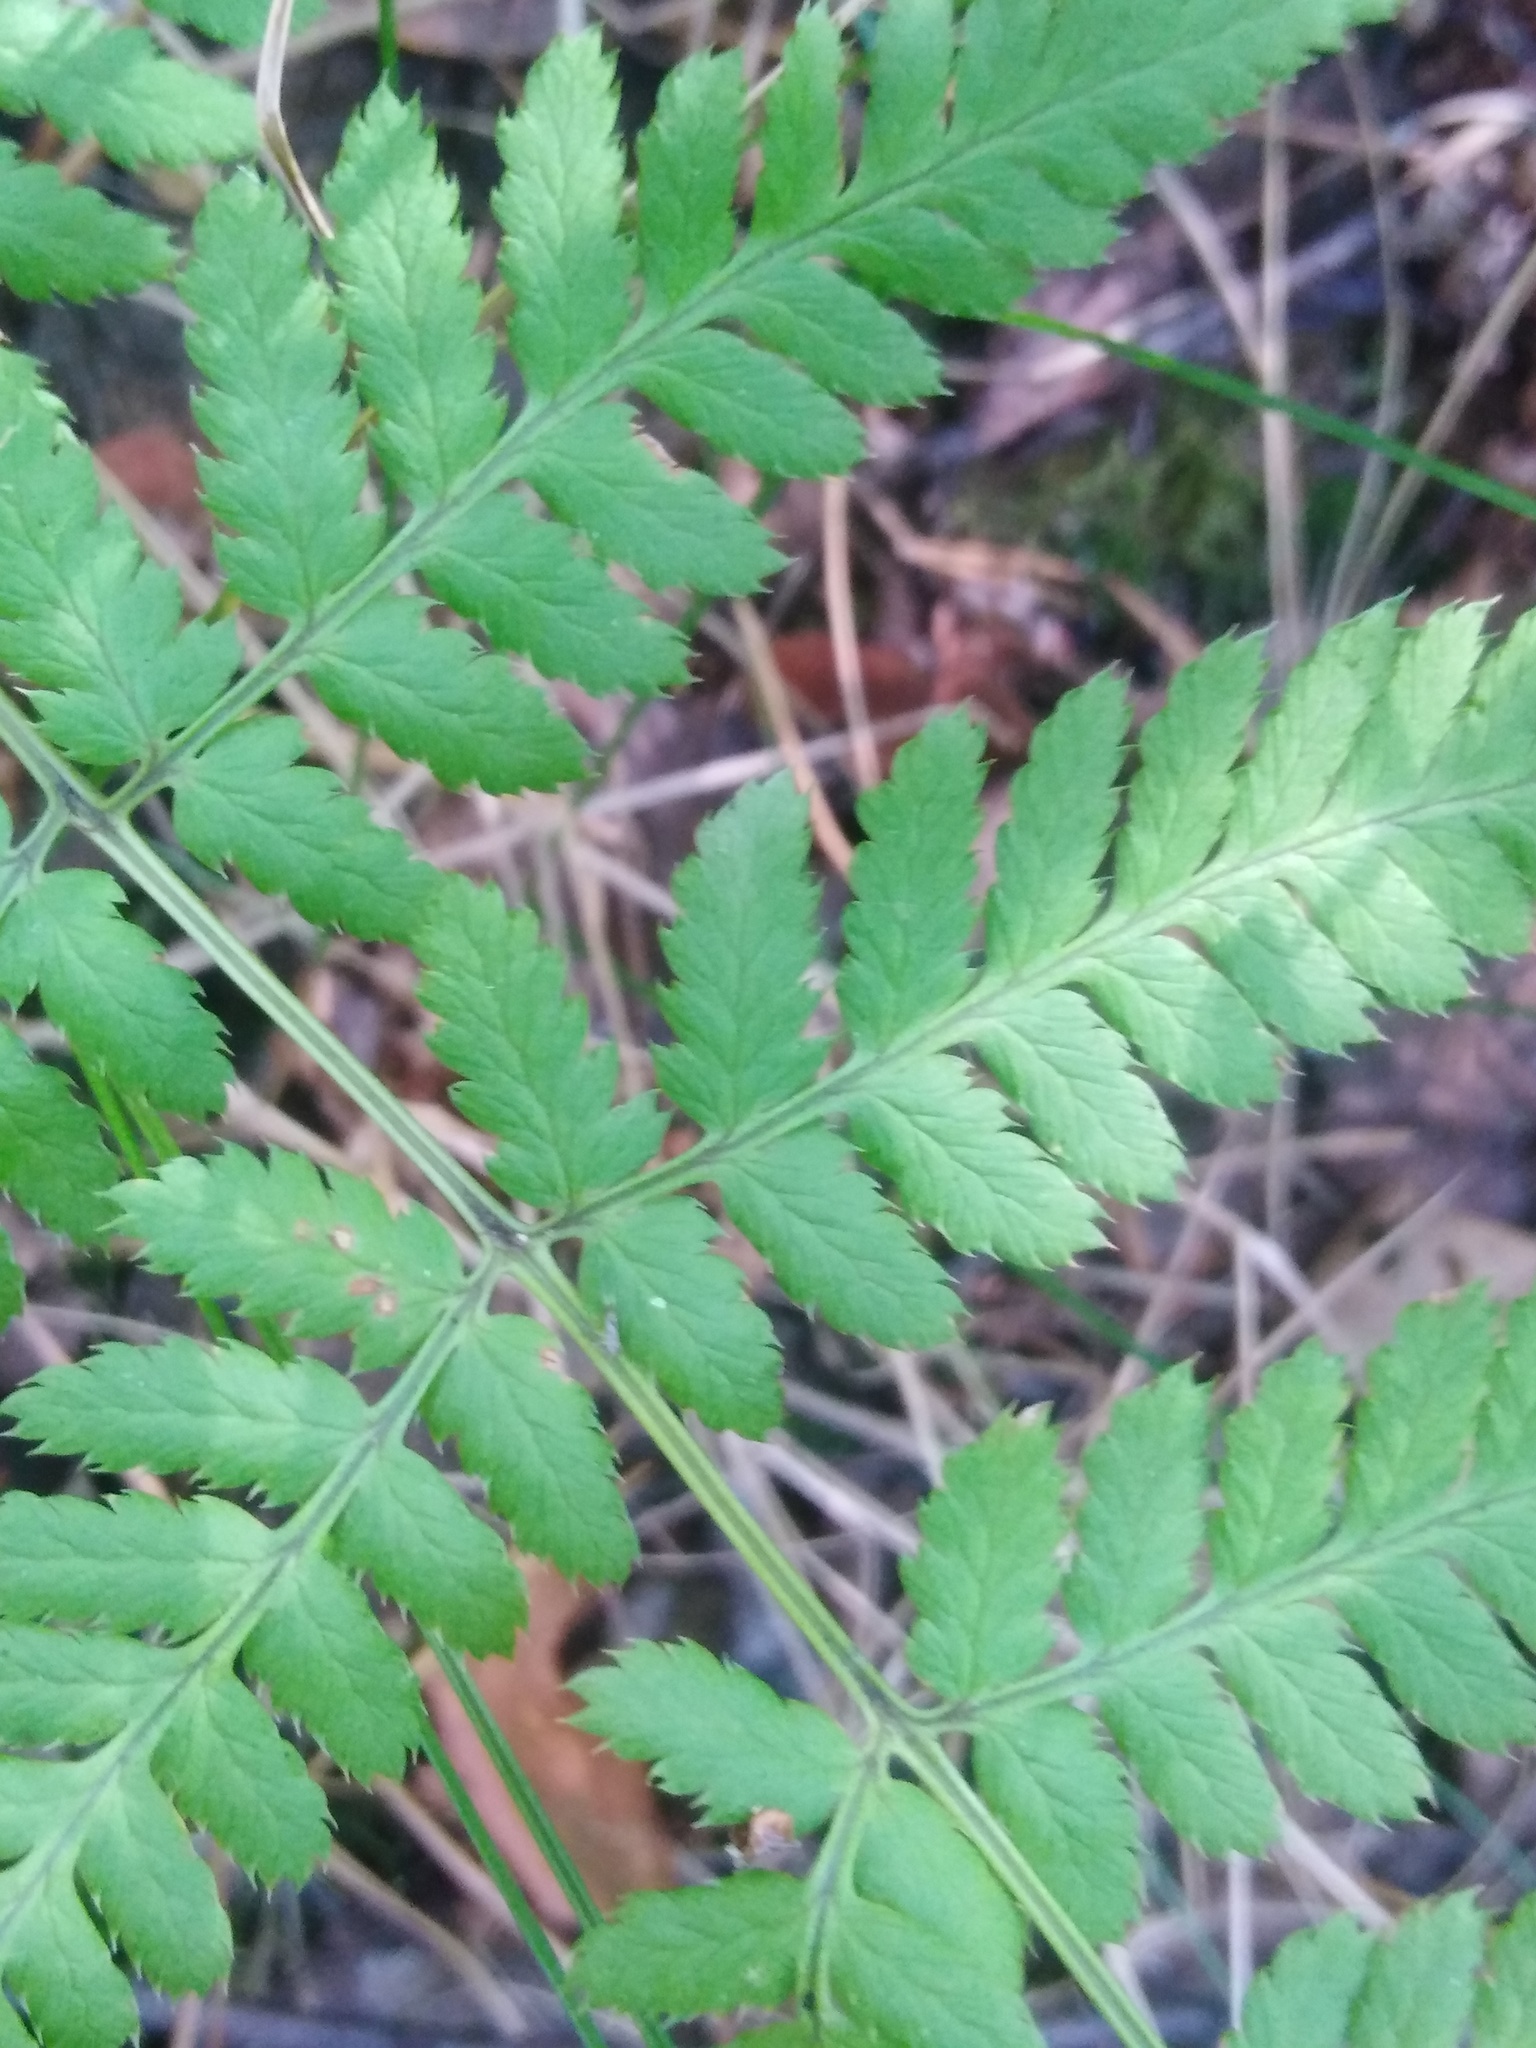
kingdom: Plantae
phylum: Tracheophyta
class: Polypodiopsida
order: Polypodiales
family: Dryopteridaceae
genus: Dryopteris
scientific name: Dryopteris carthusiana
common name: Narrow buckler-fern
